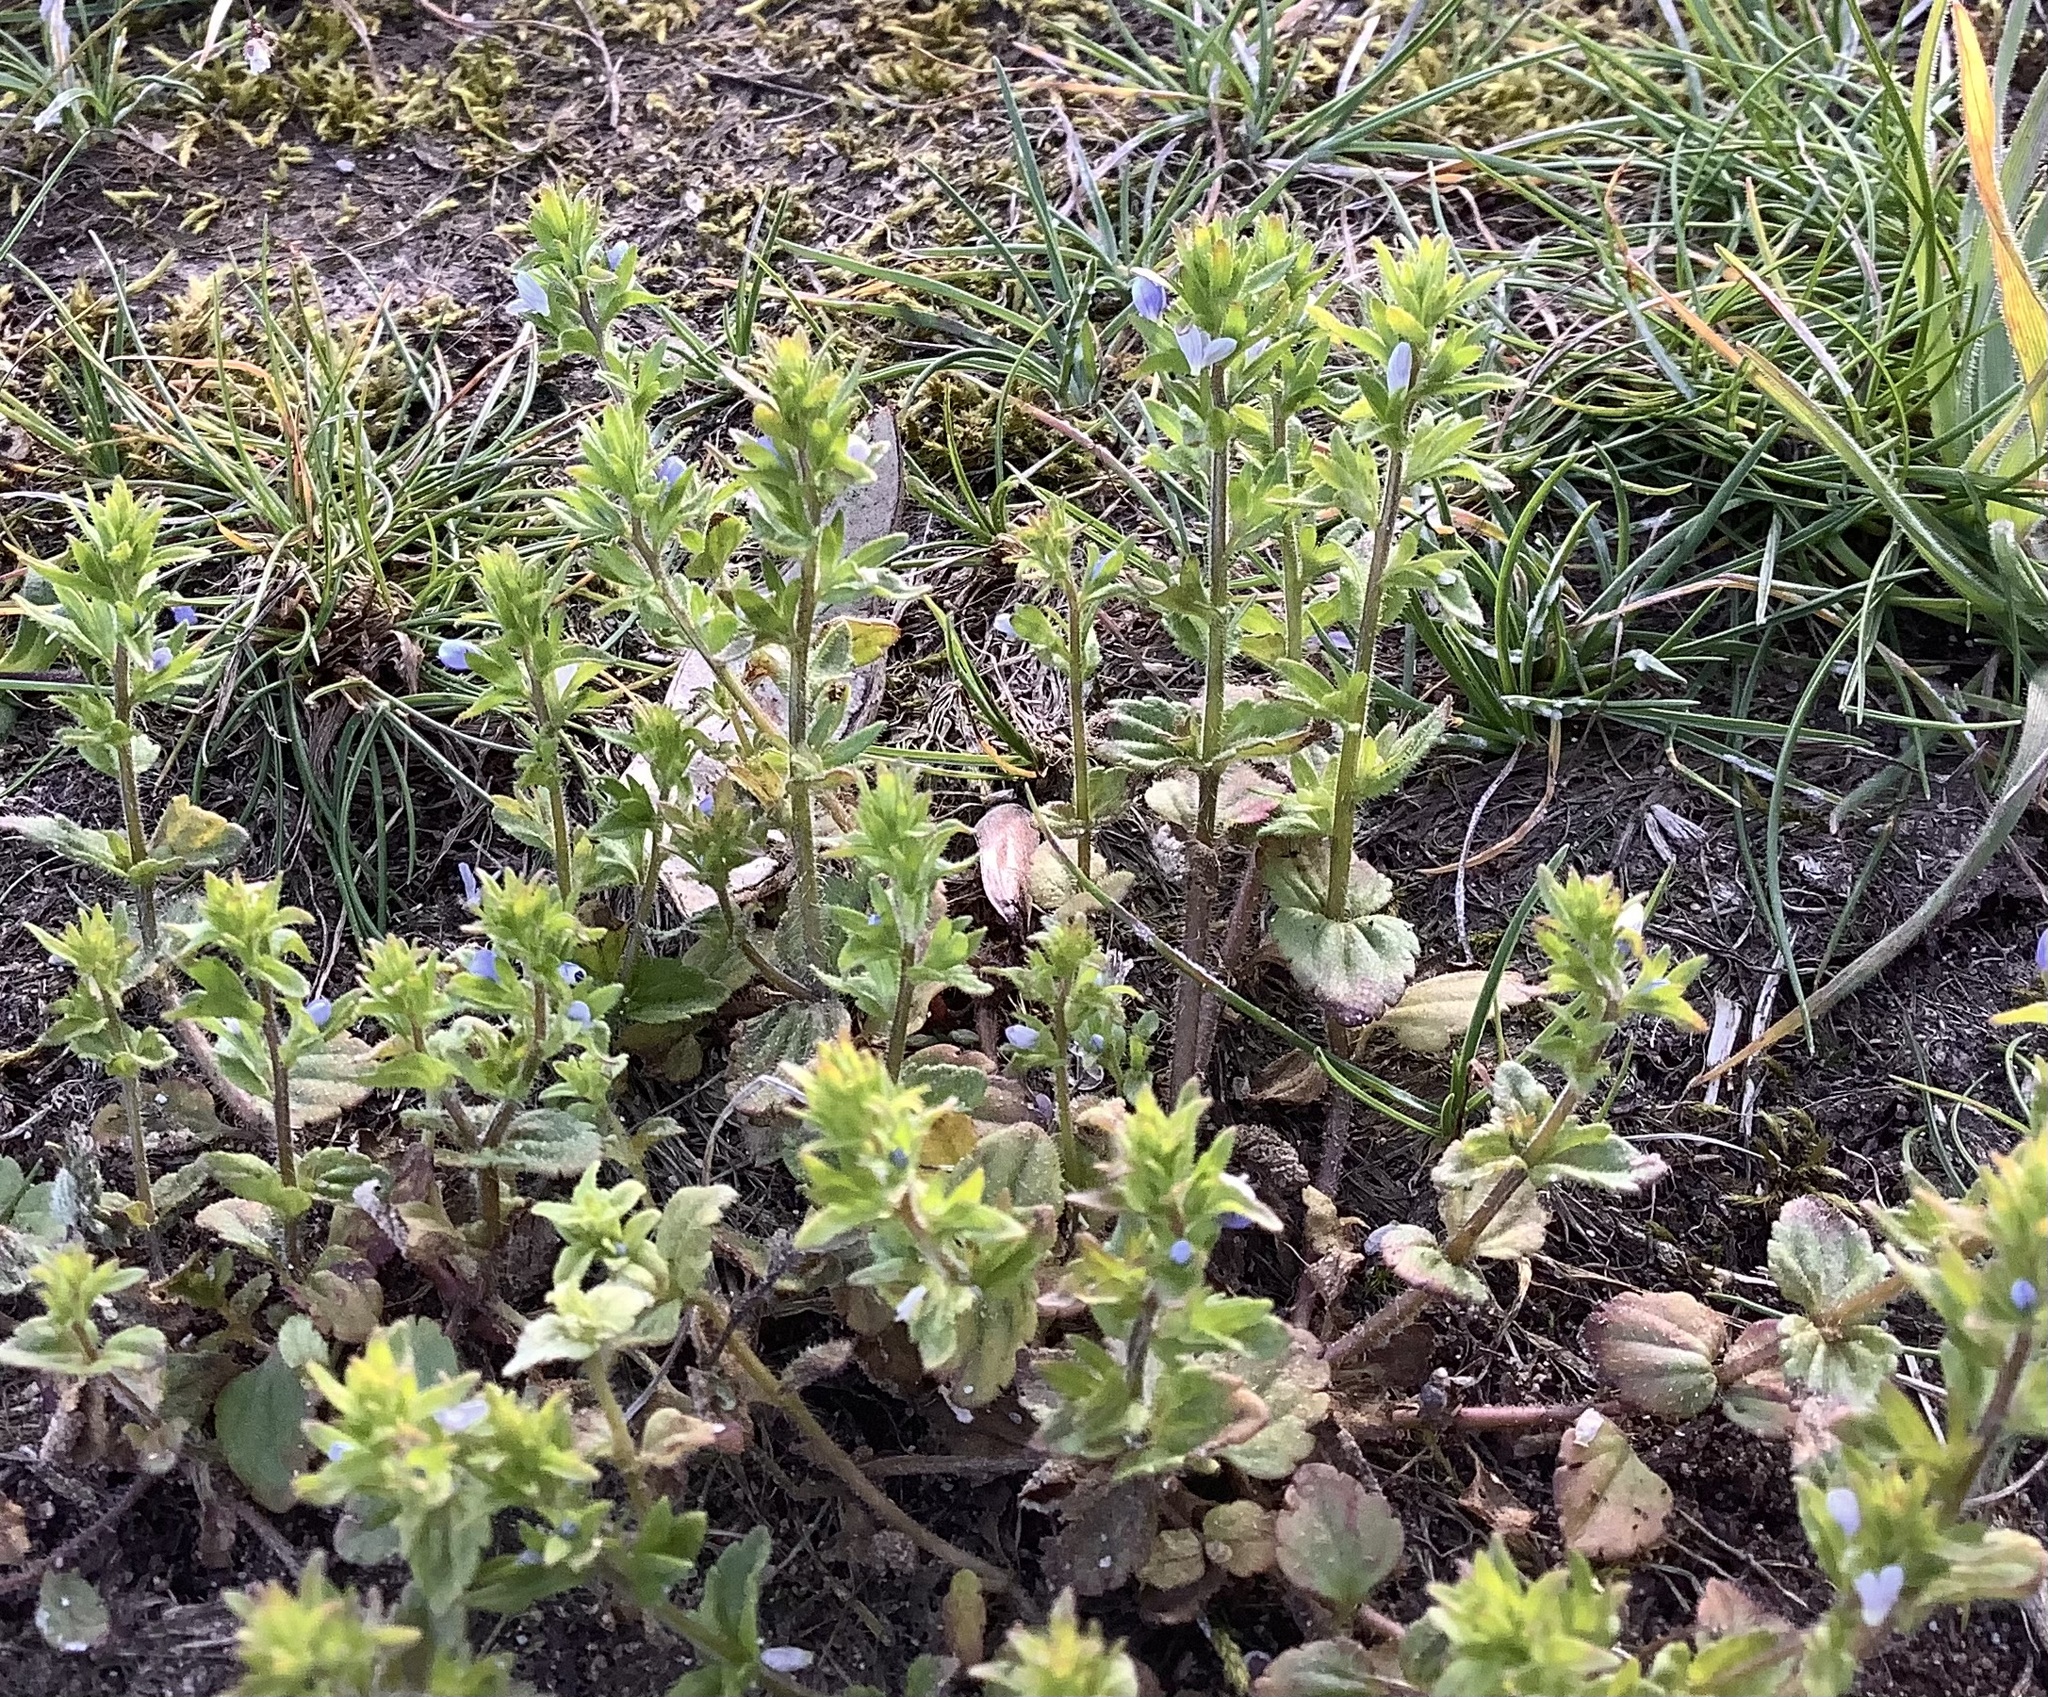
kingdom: Plantae
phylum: Tracheophyta
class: Magnoliopsida
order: Lamiales
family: Plantaginaceae
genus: Veronica
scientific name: Veronica arvensis
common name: Corn speedwell
